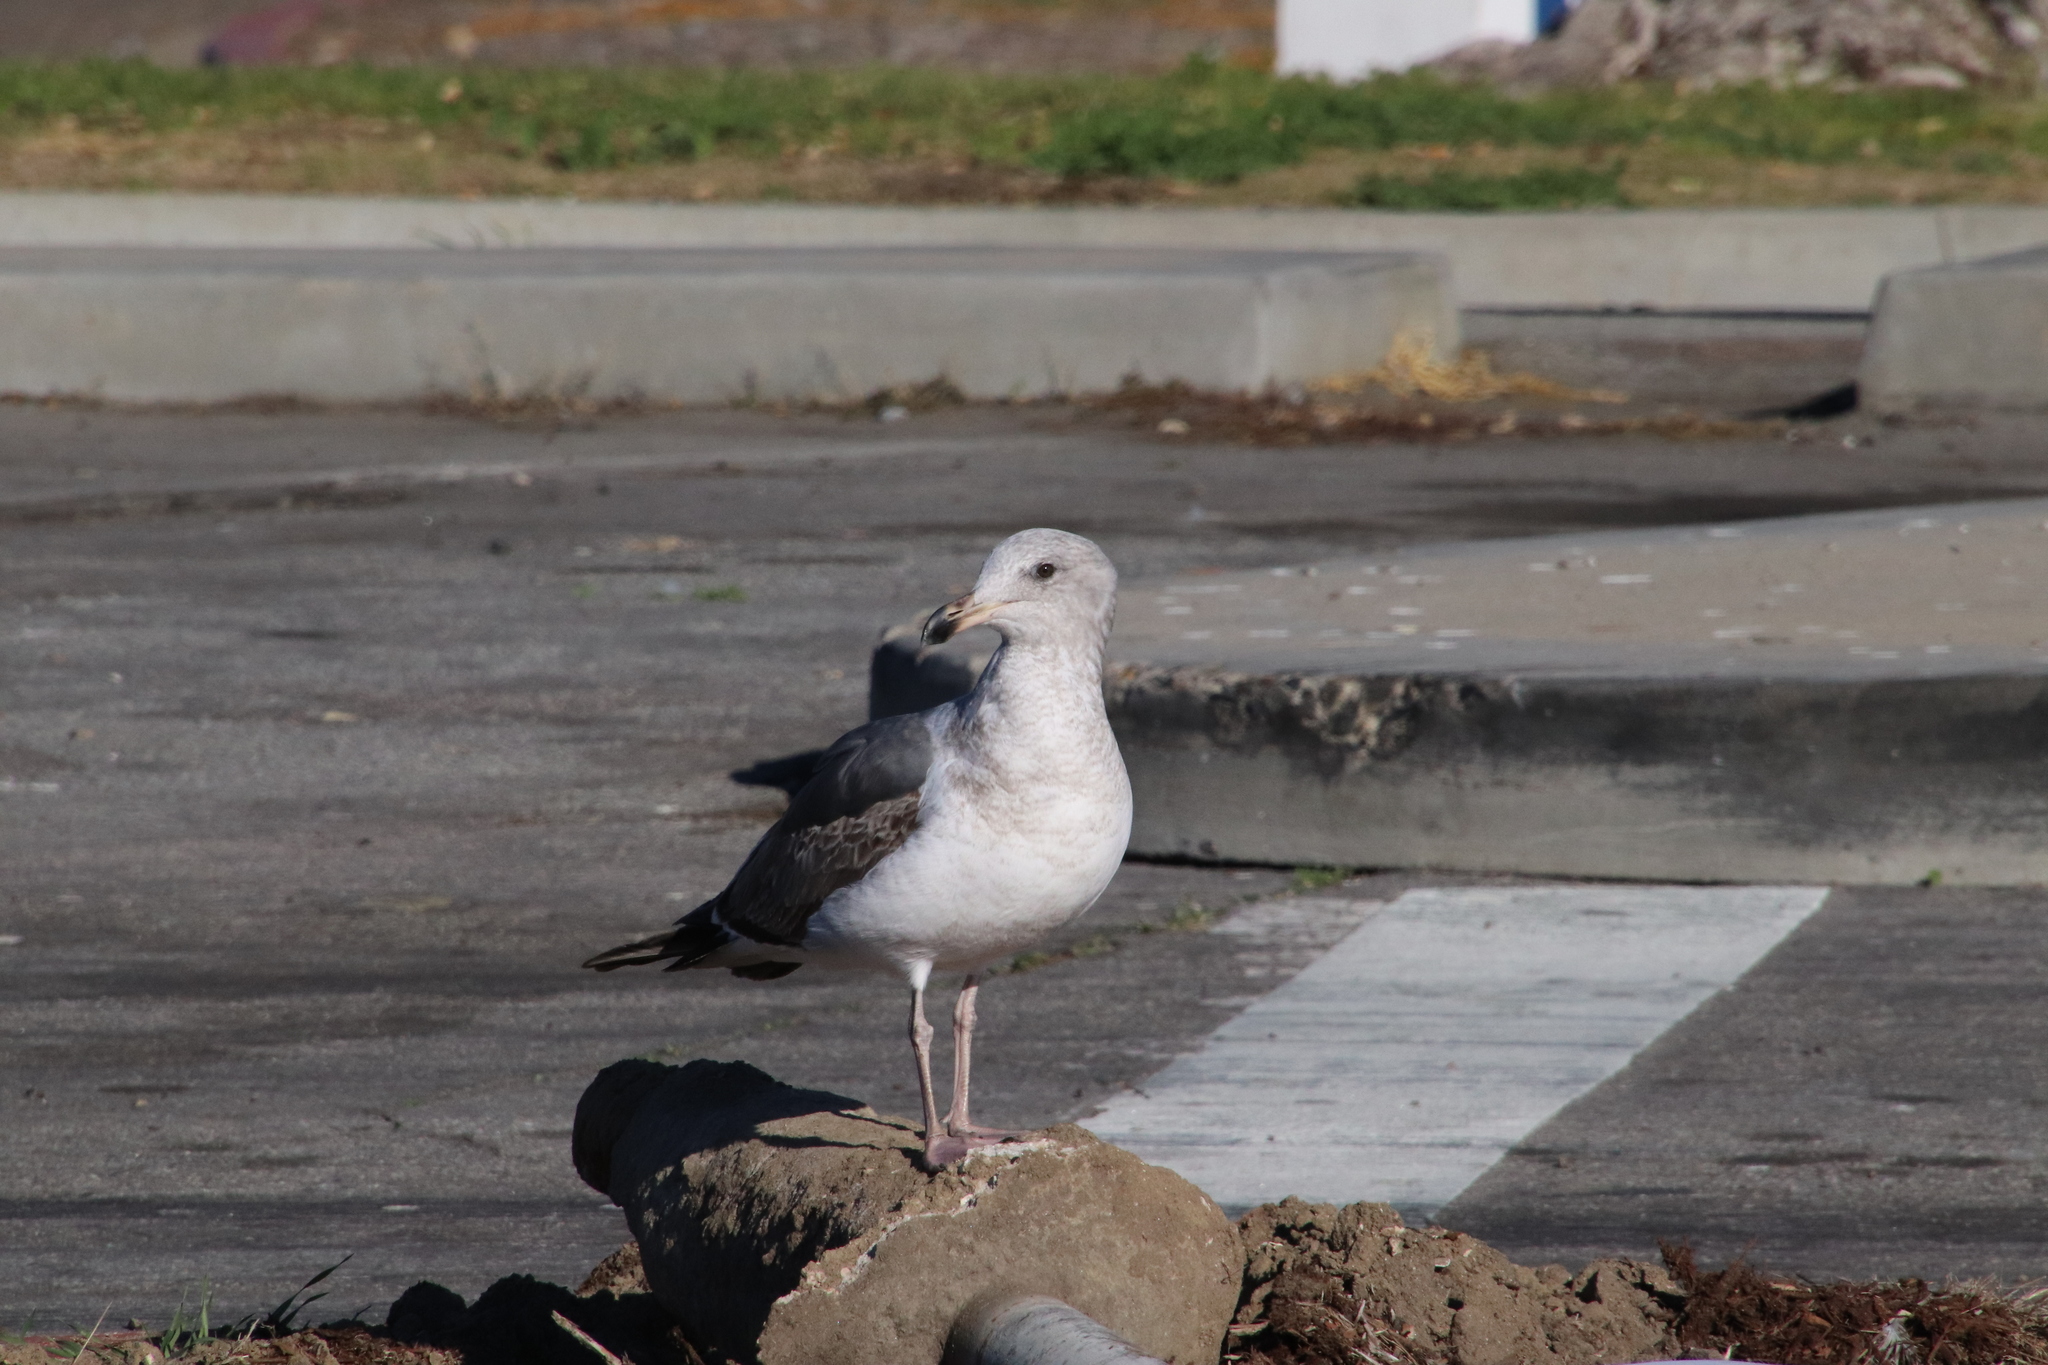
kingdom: Animalia
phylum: Chordata
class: Aves
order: Charadriiformes
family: Laridae
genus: Larus
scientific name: Larus occidentalis
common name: Western gull
